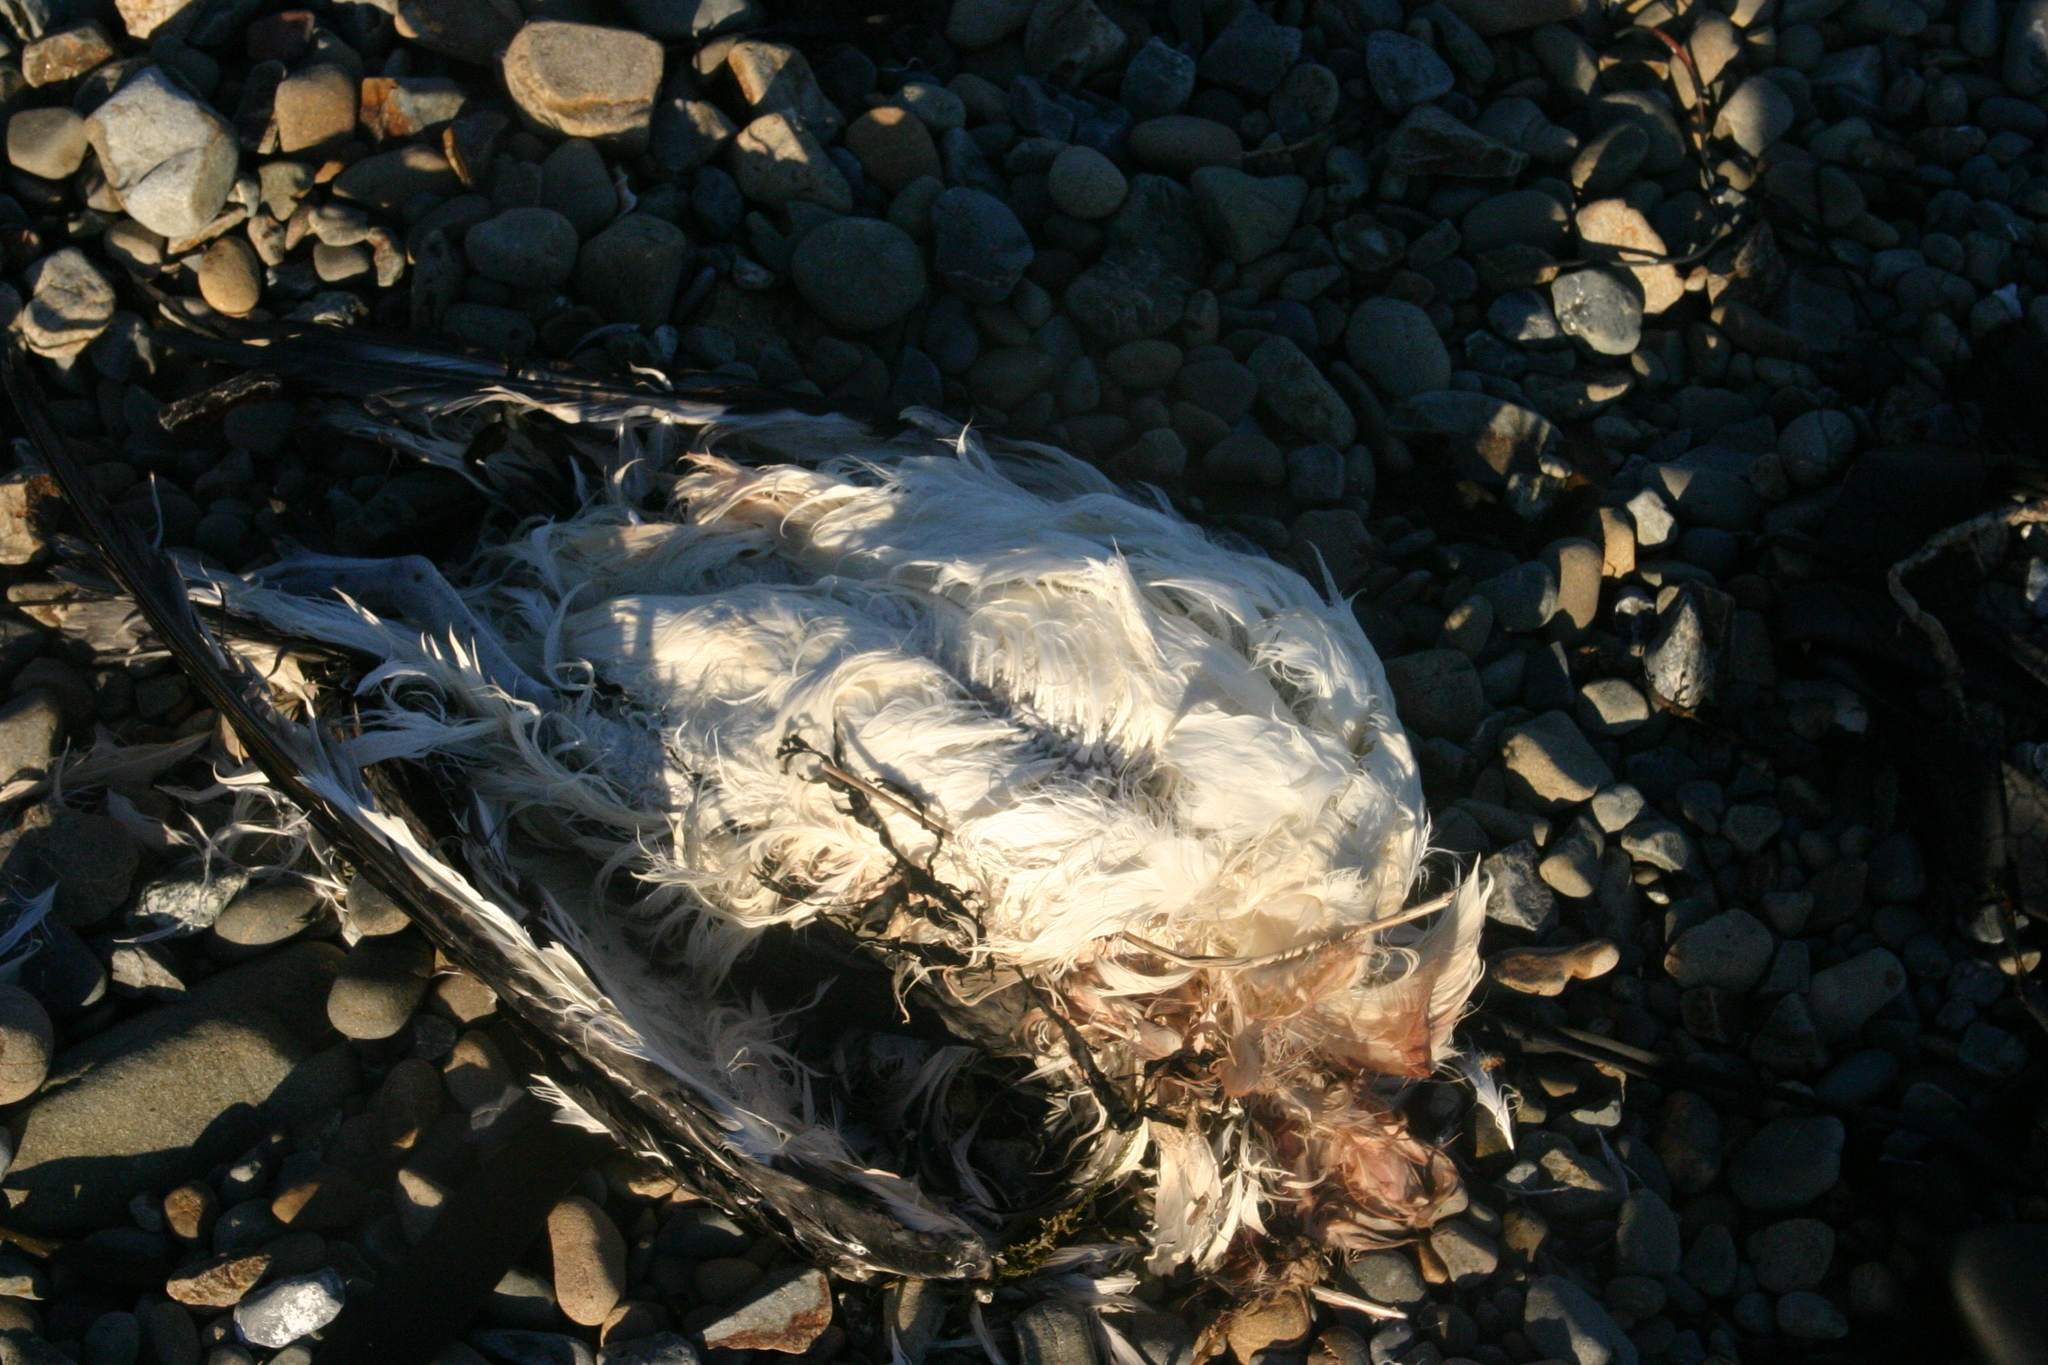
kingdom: Animalia
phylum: Chordata
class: Aves
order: Charadriiformes
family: Laridae
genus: Larus
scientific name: Larus dominicanus
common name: Kelp gull
